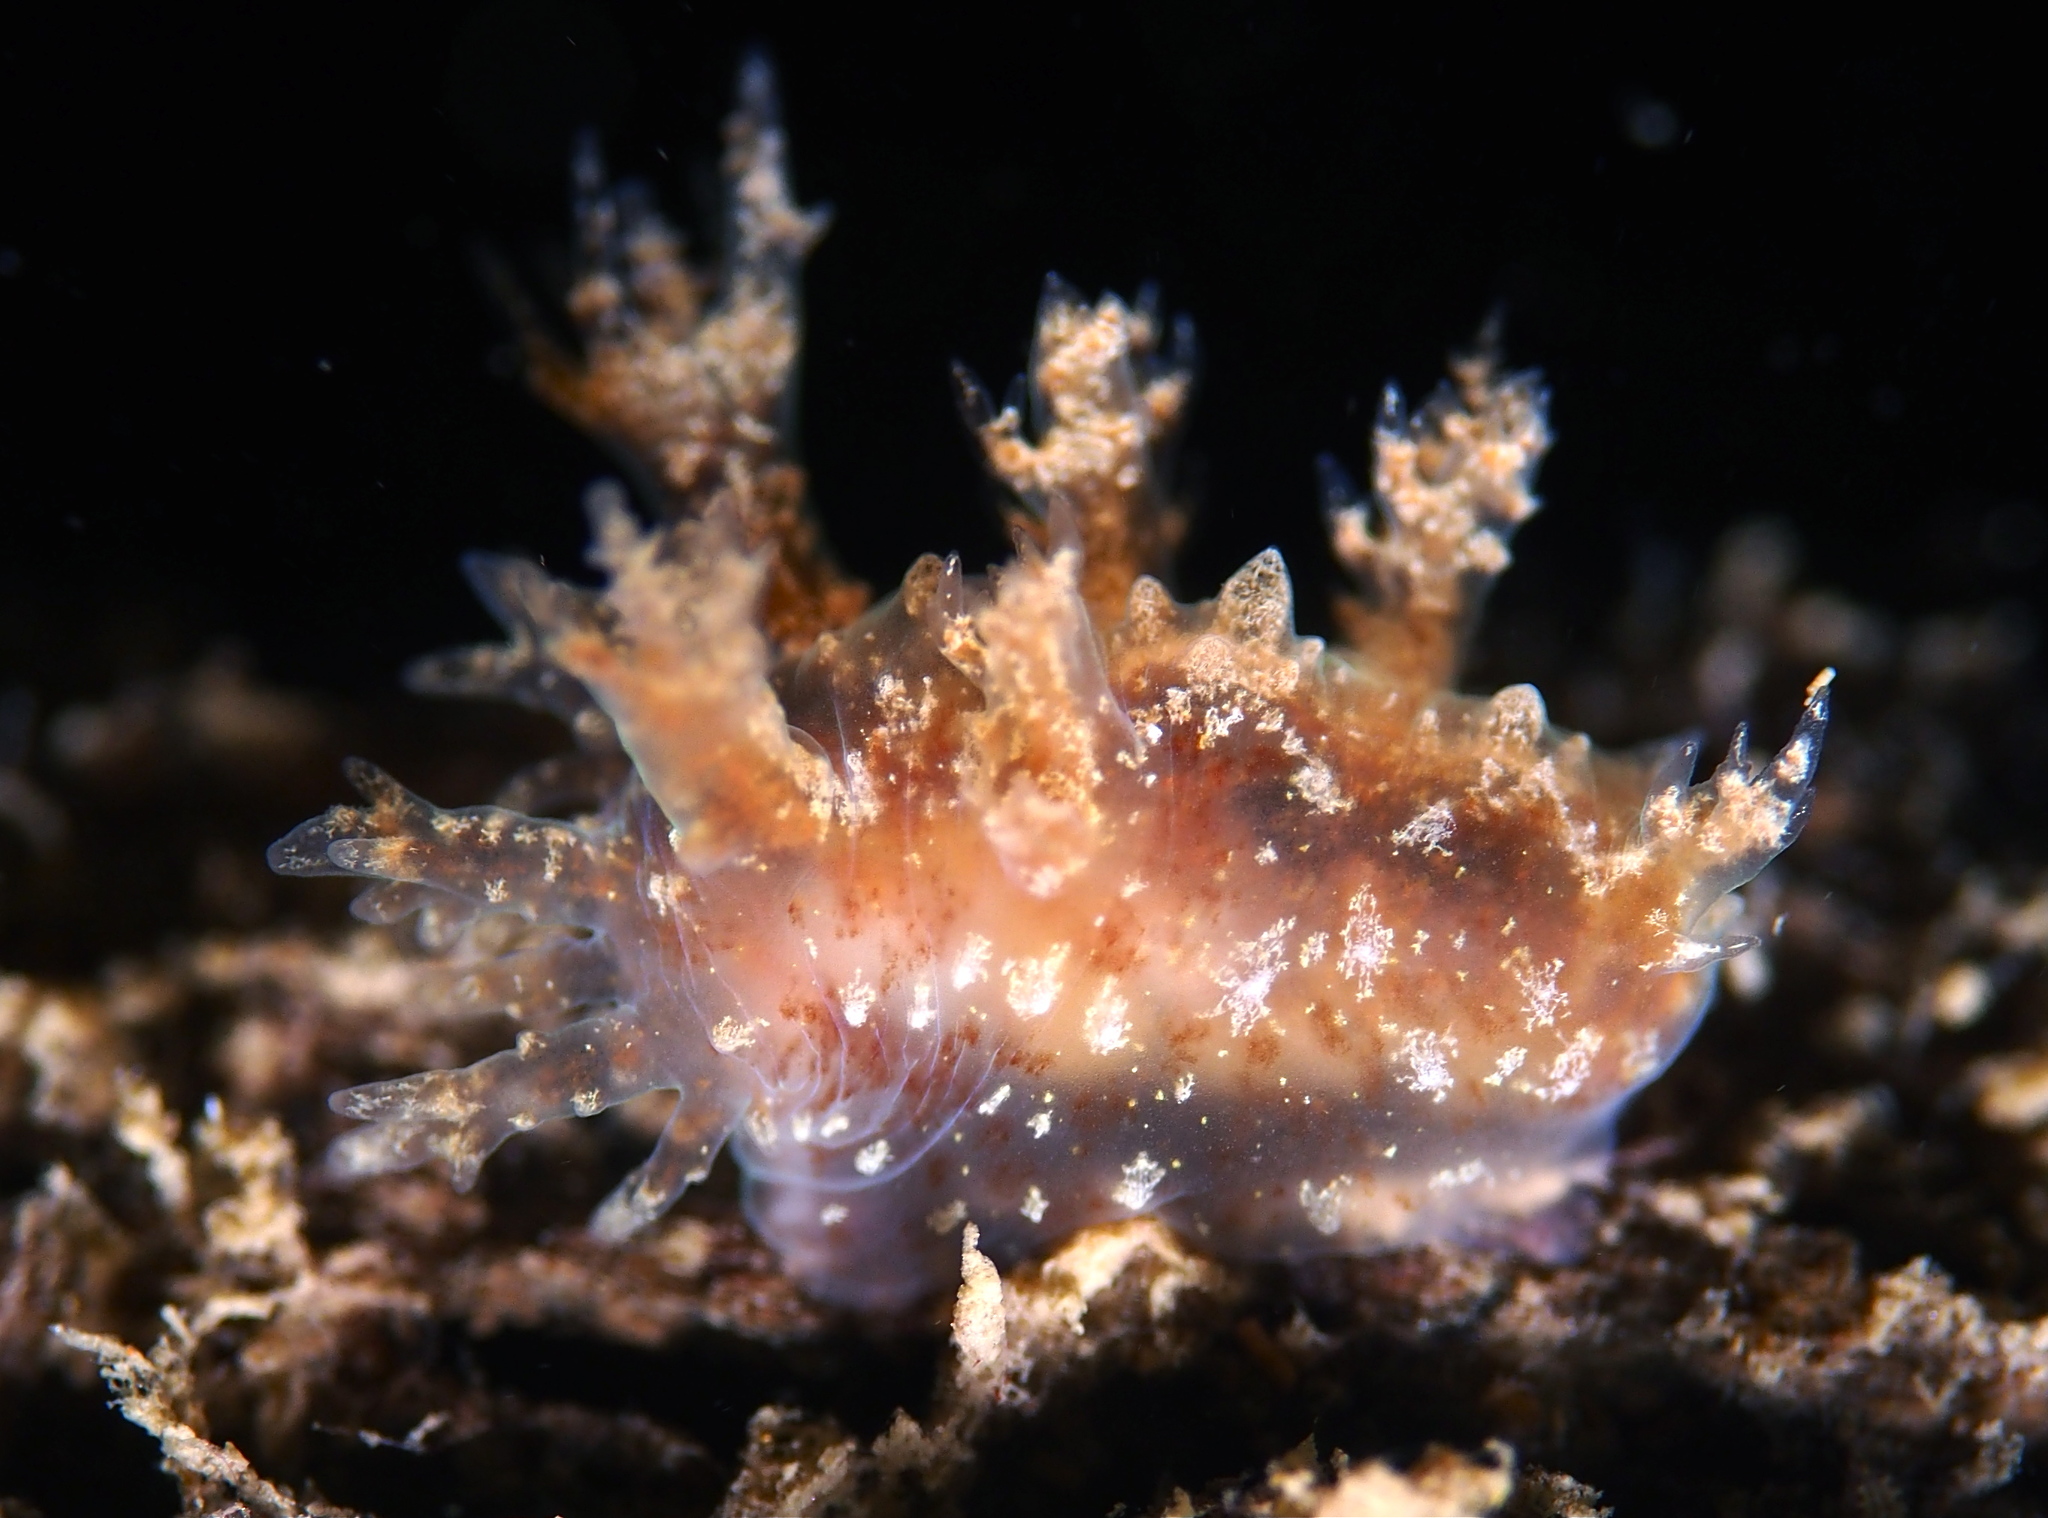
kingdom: Animalia
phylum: Mollusca
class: Gastropoda
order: Nudibranchia
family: Dendronotidae
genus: Dendronotus
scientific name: Dendronotus frondosus
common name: Bushy-backed nudibranch
